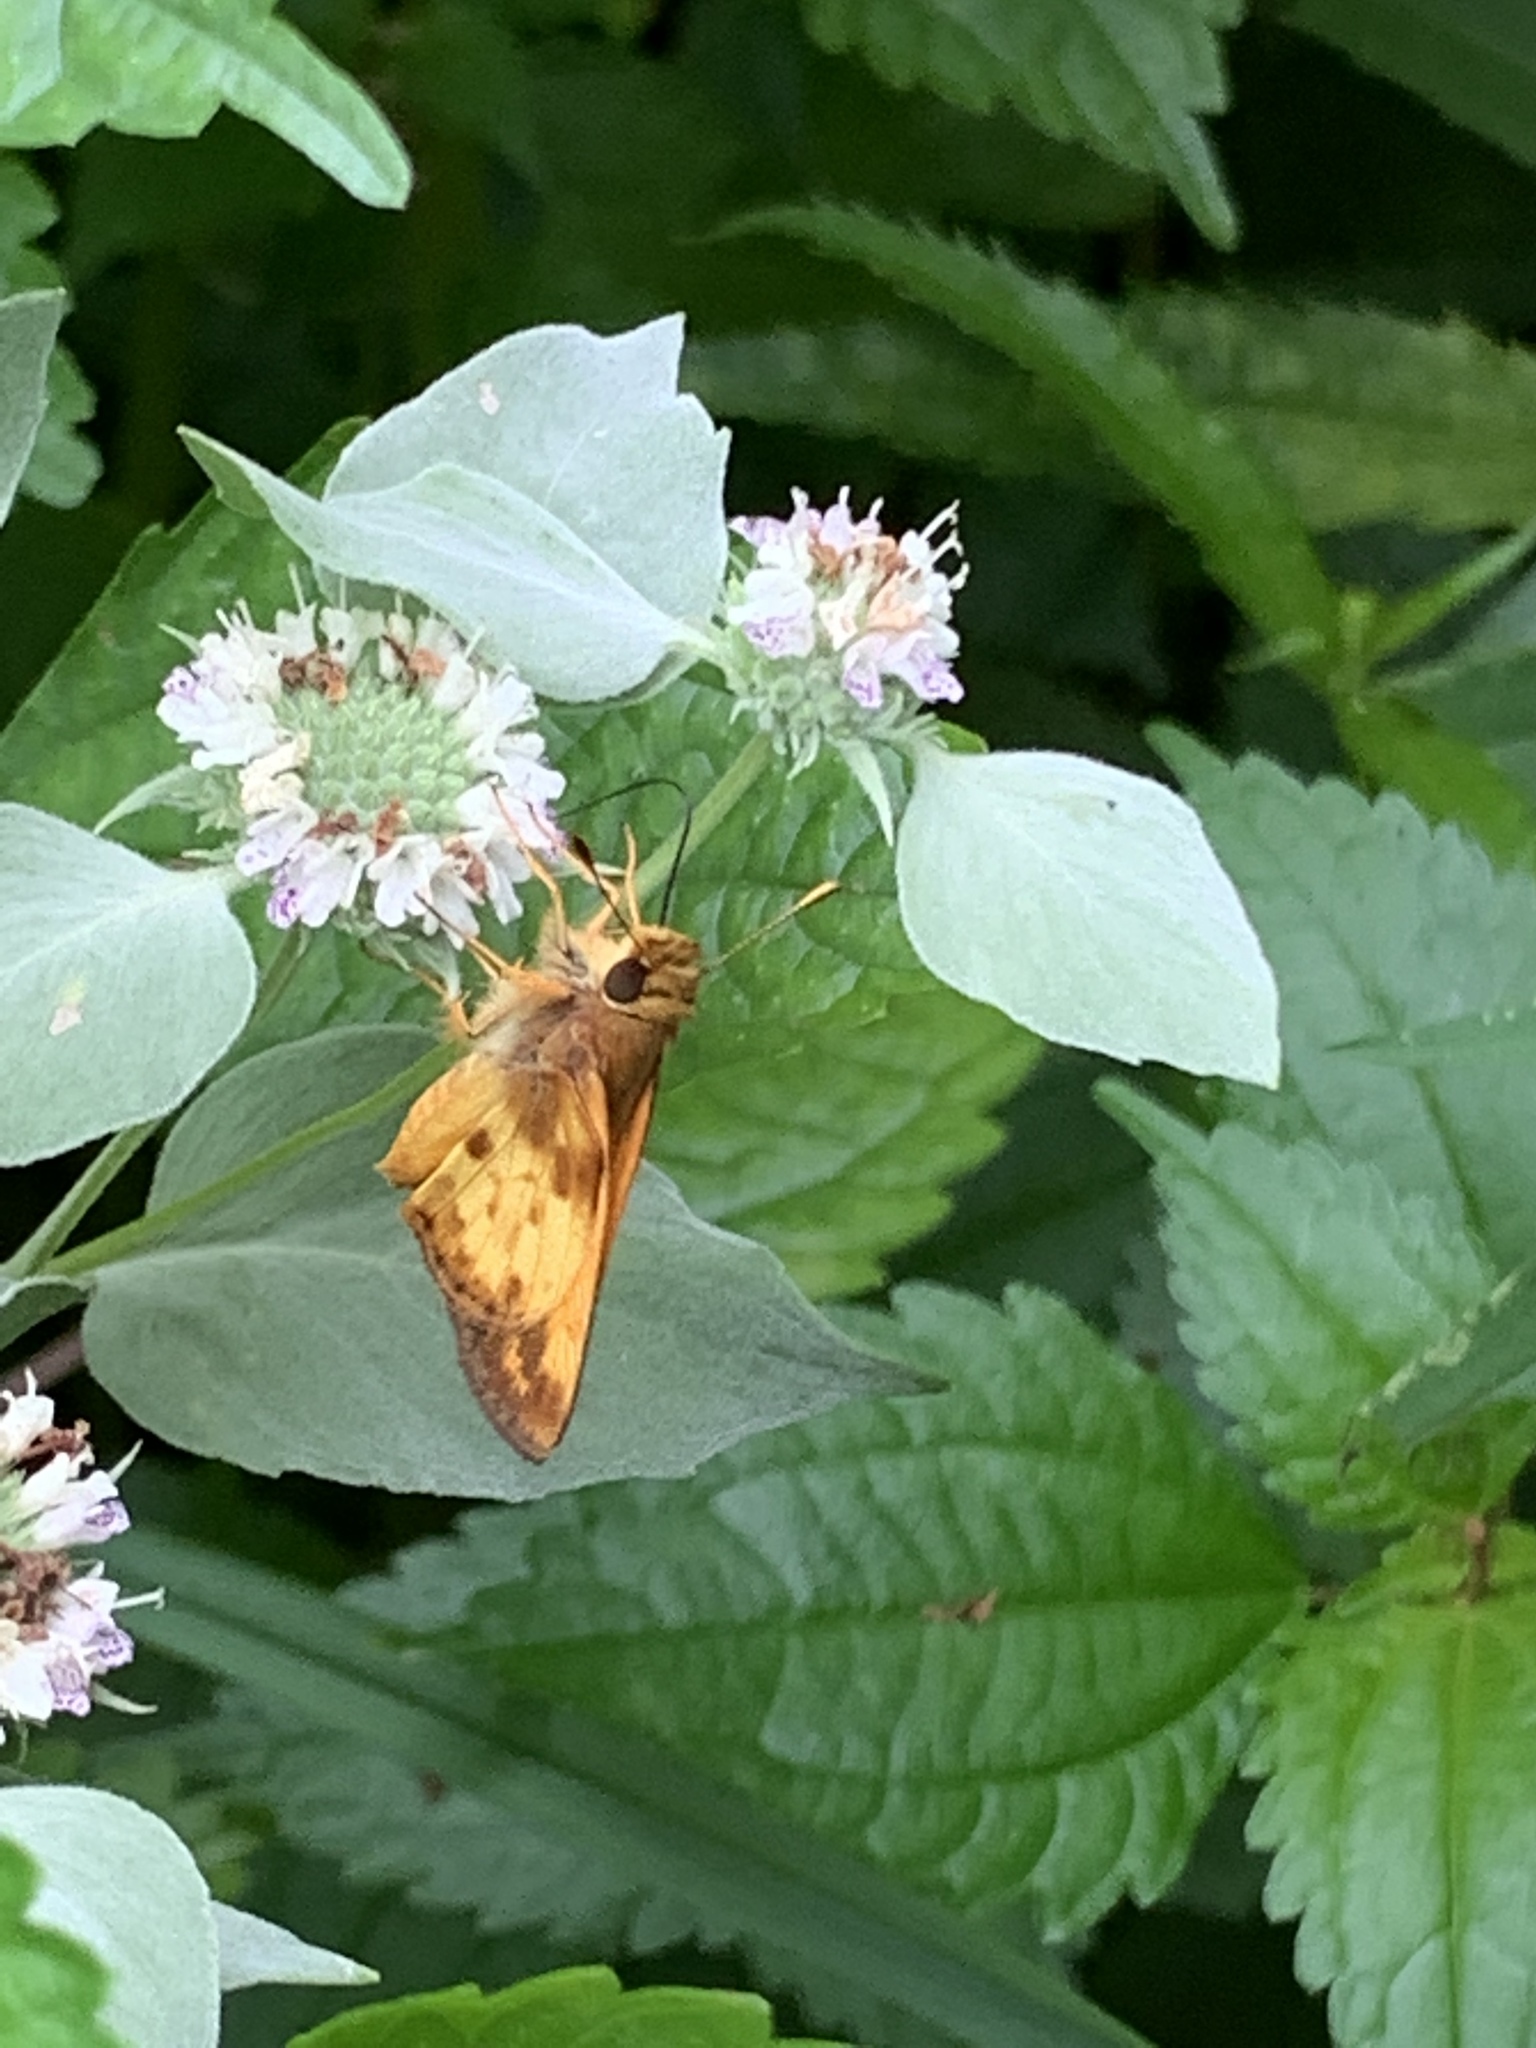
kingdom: Animalia
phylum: Arthropoda
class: Insecta
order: Lepidoptera
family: Hesperiidae
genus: Lon
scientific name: Lon zabulon
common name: Zabulon skipper
